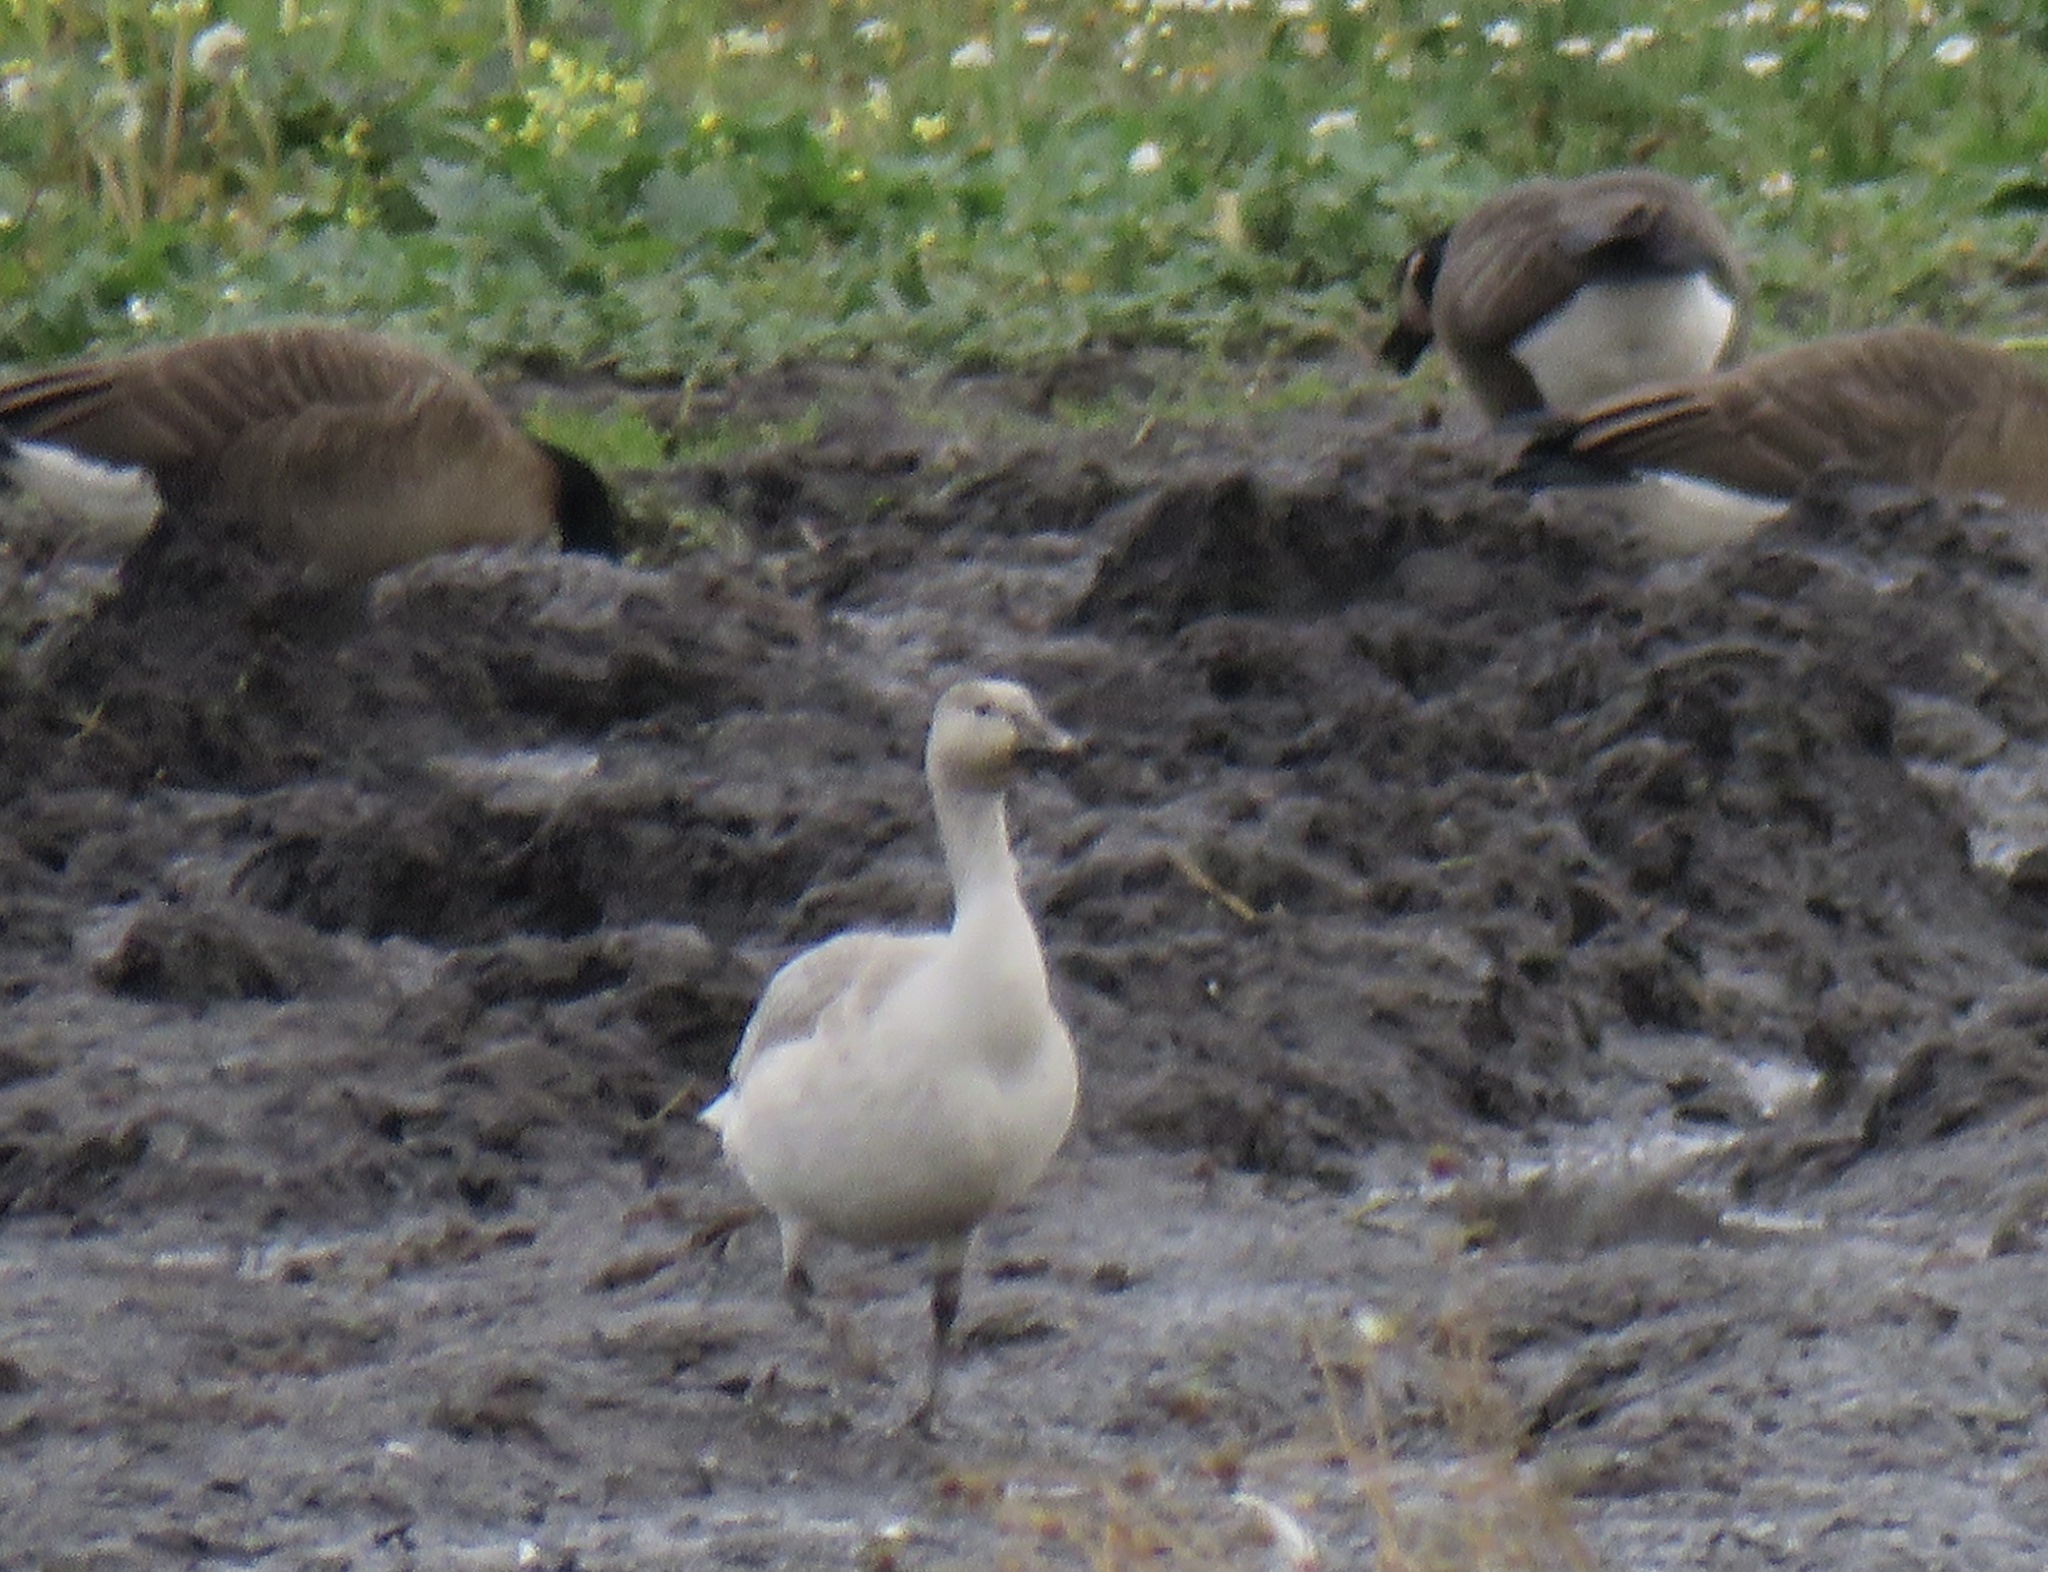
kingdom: Animalia
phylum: Chordata
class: Aves
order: Anseriformes
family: Anatidae
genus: Anser
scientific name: Anser caerulescens
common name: Snow goose
